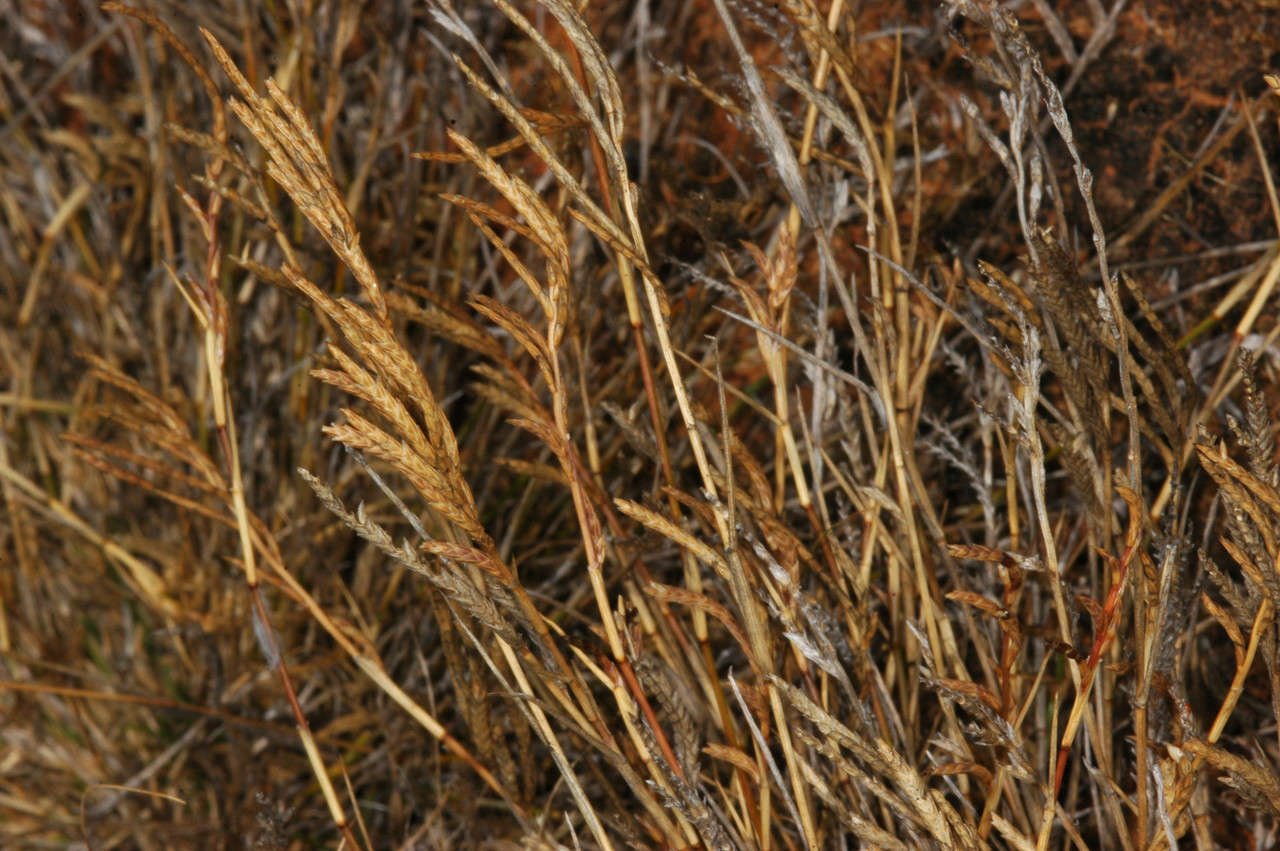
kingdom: Plantae
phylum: Tracheophyta
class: Liliopsida
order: Poales
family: Poaceae
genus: Eragrostis
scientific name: Eragrostis dielsii
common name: Lovegrass
